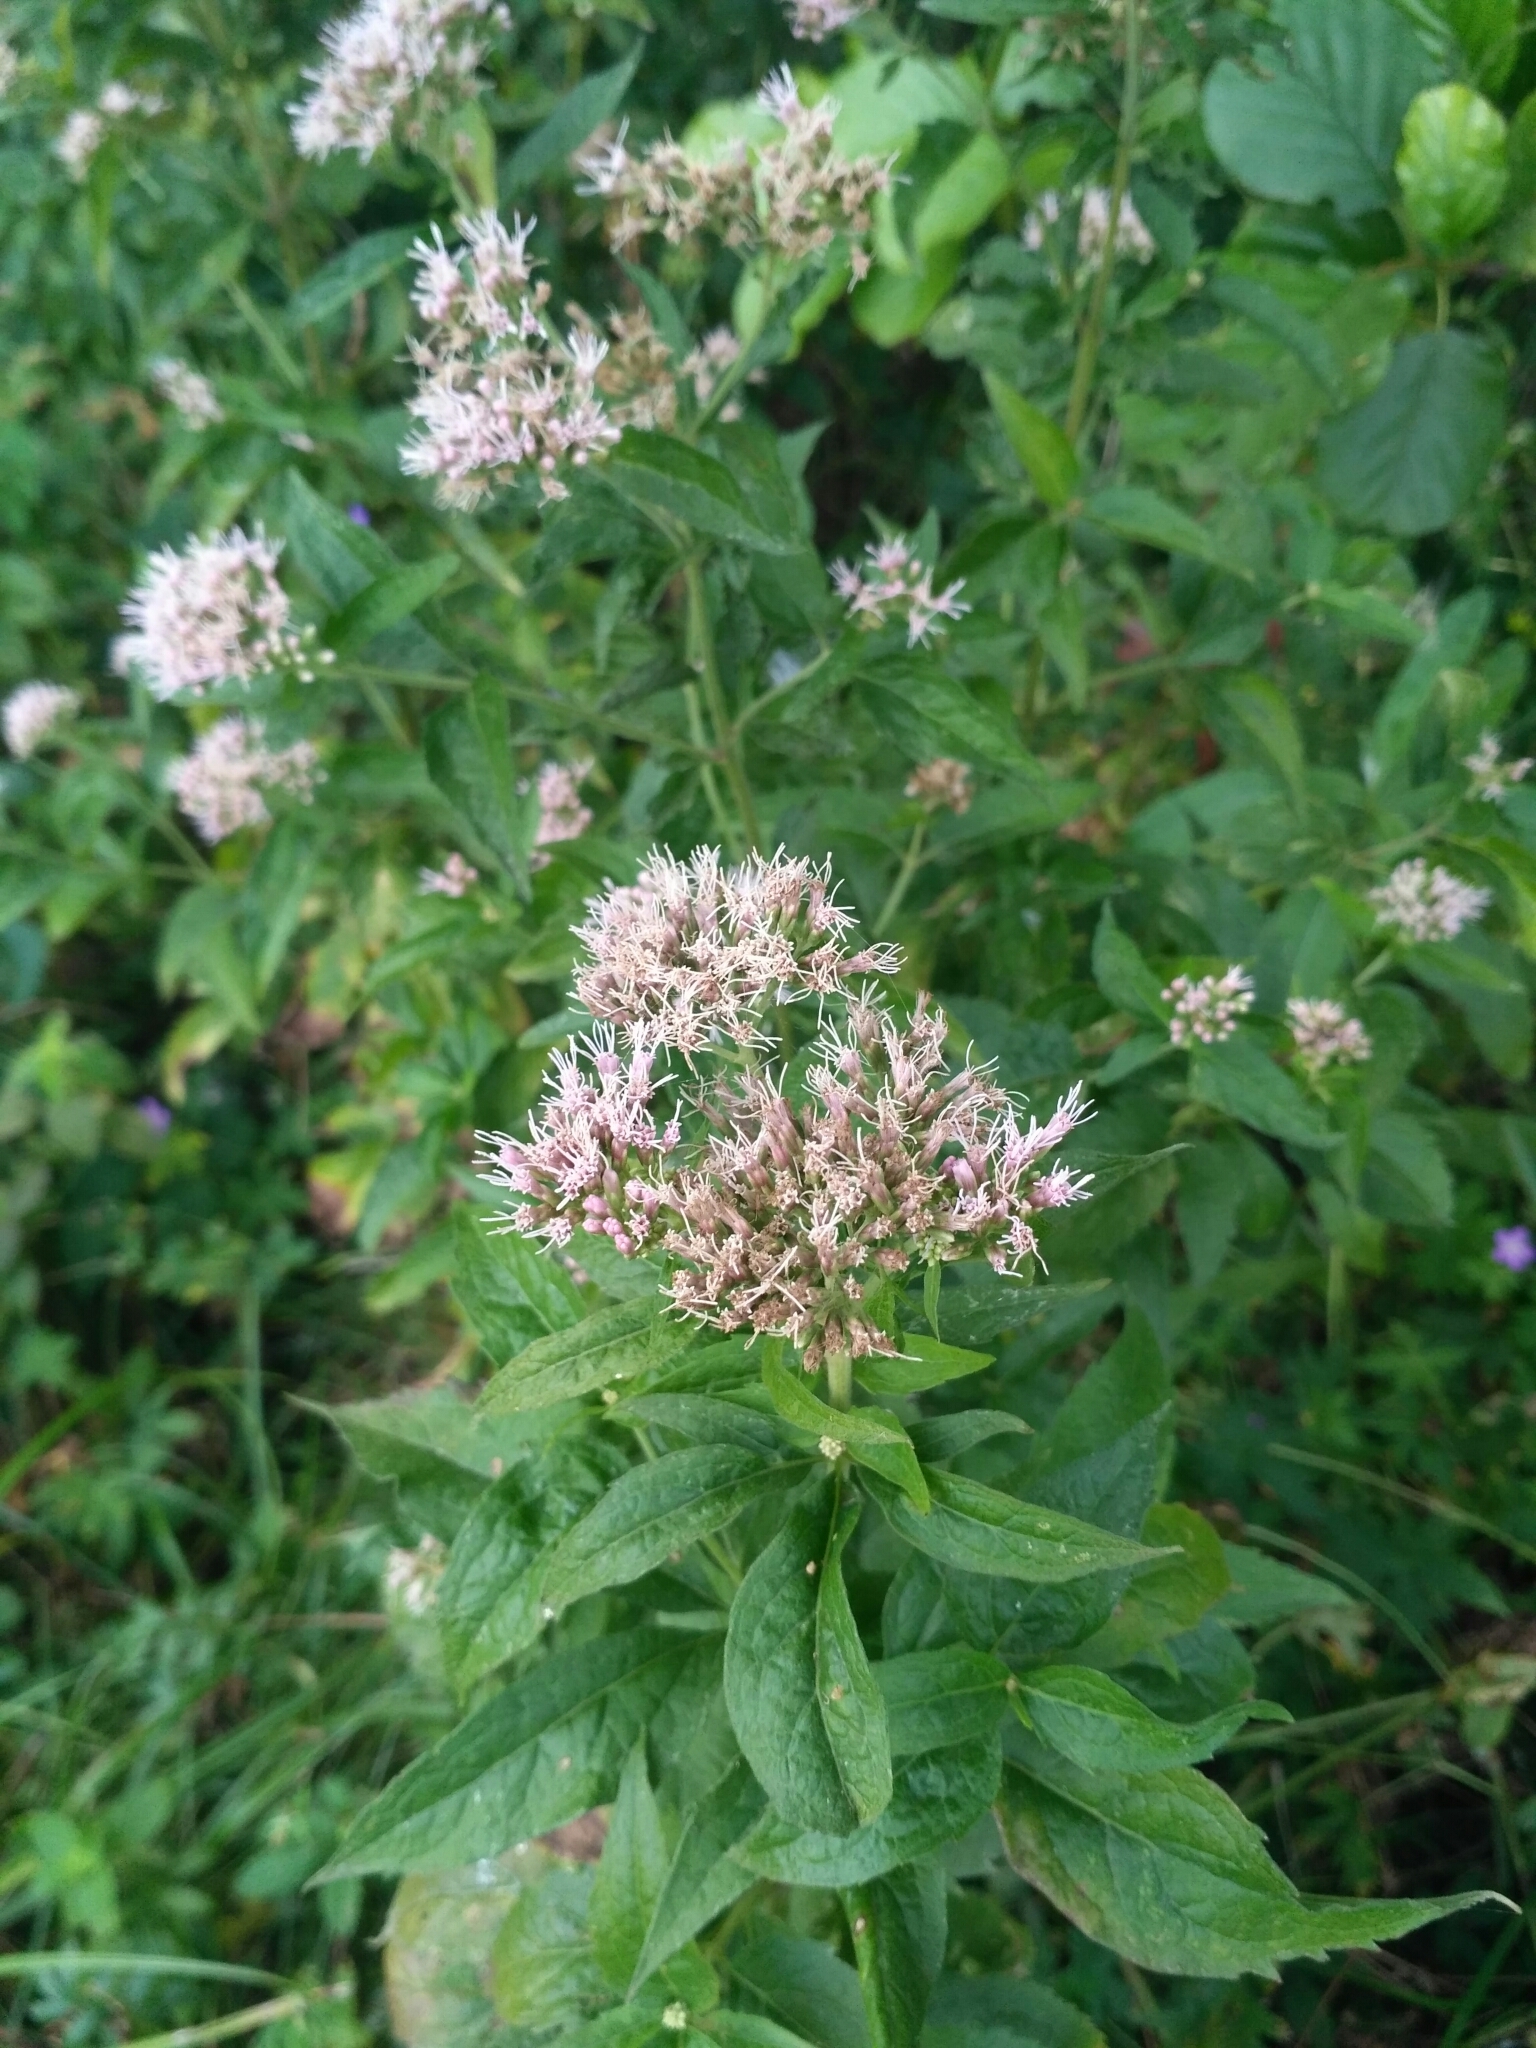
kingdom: Plantae
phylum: Tracheophyta
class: Magnoliopsida
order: Asterales
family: Asteraceae
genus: Eupatorium
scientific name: Eupatorium cannabinum
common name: Hemp-agrimony
